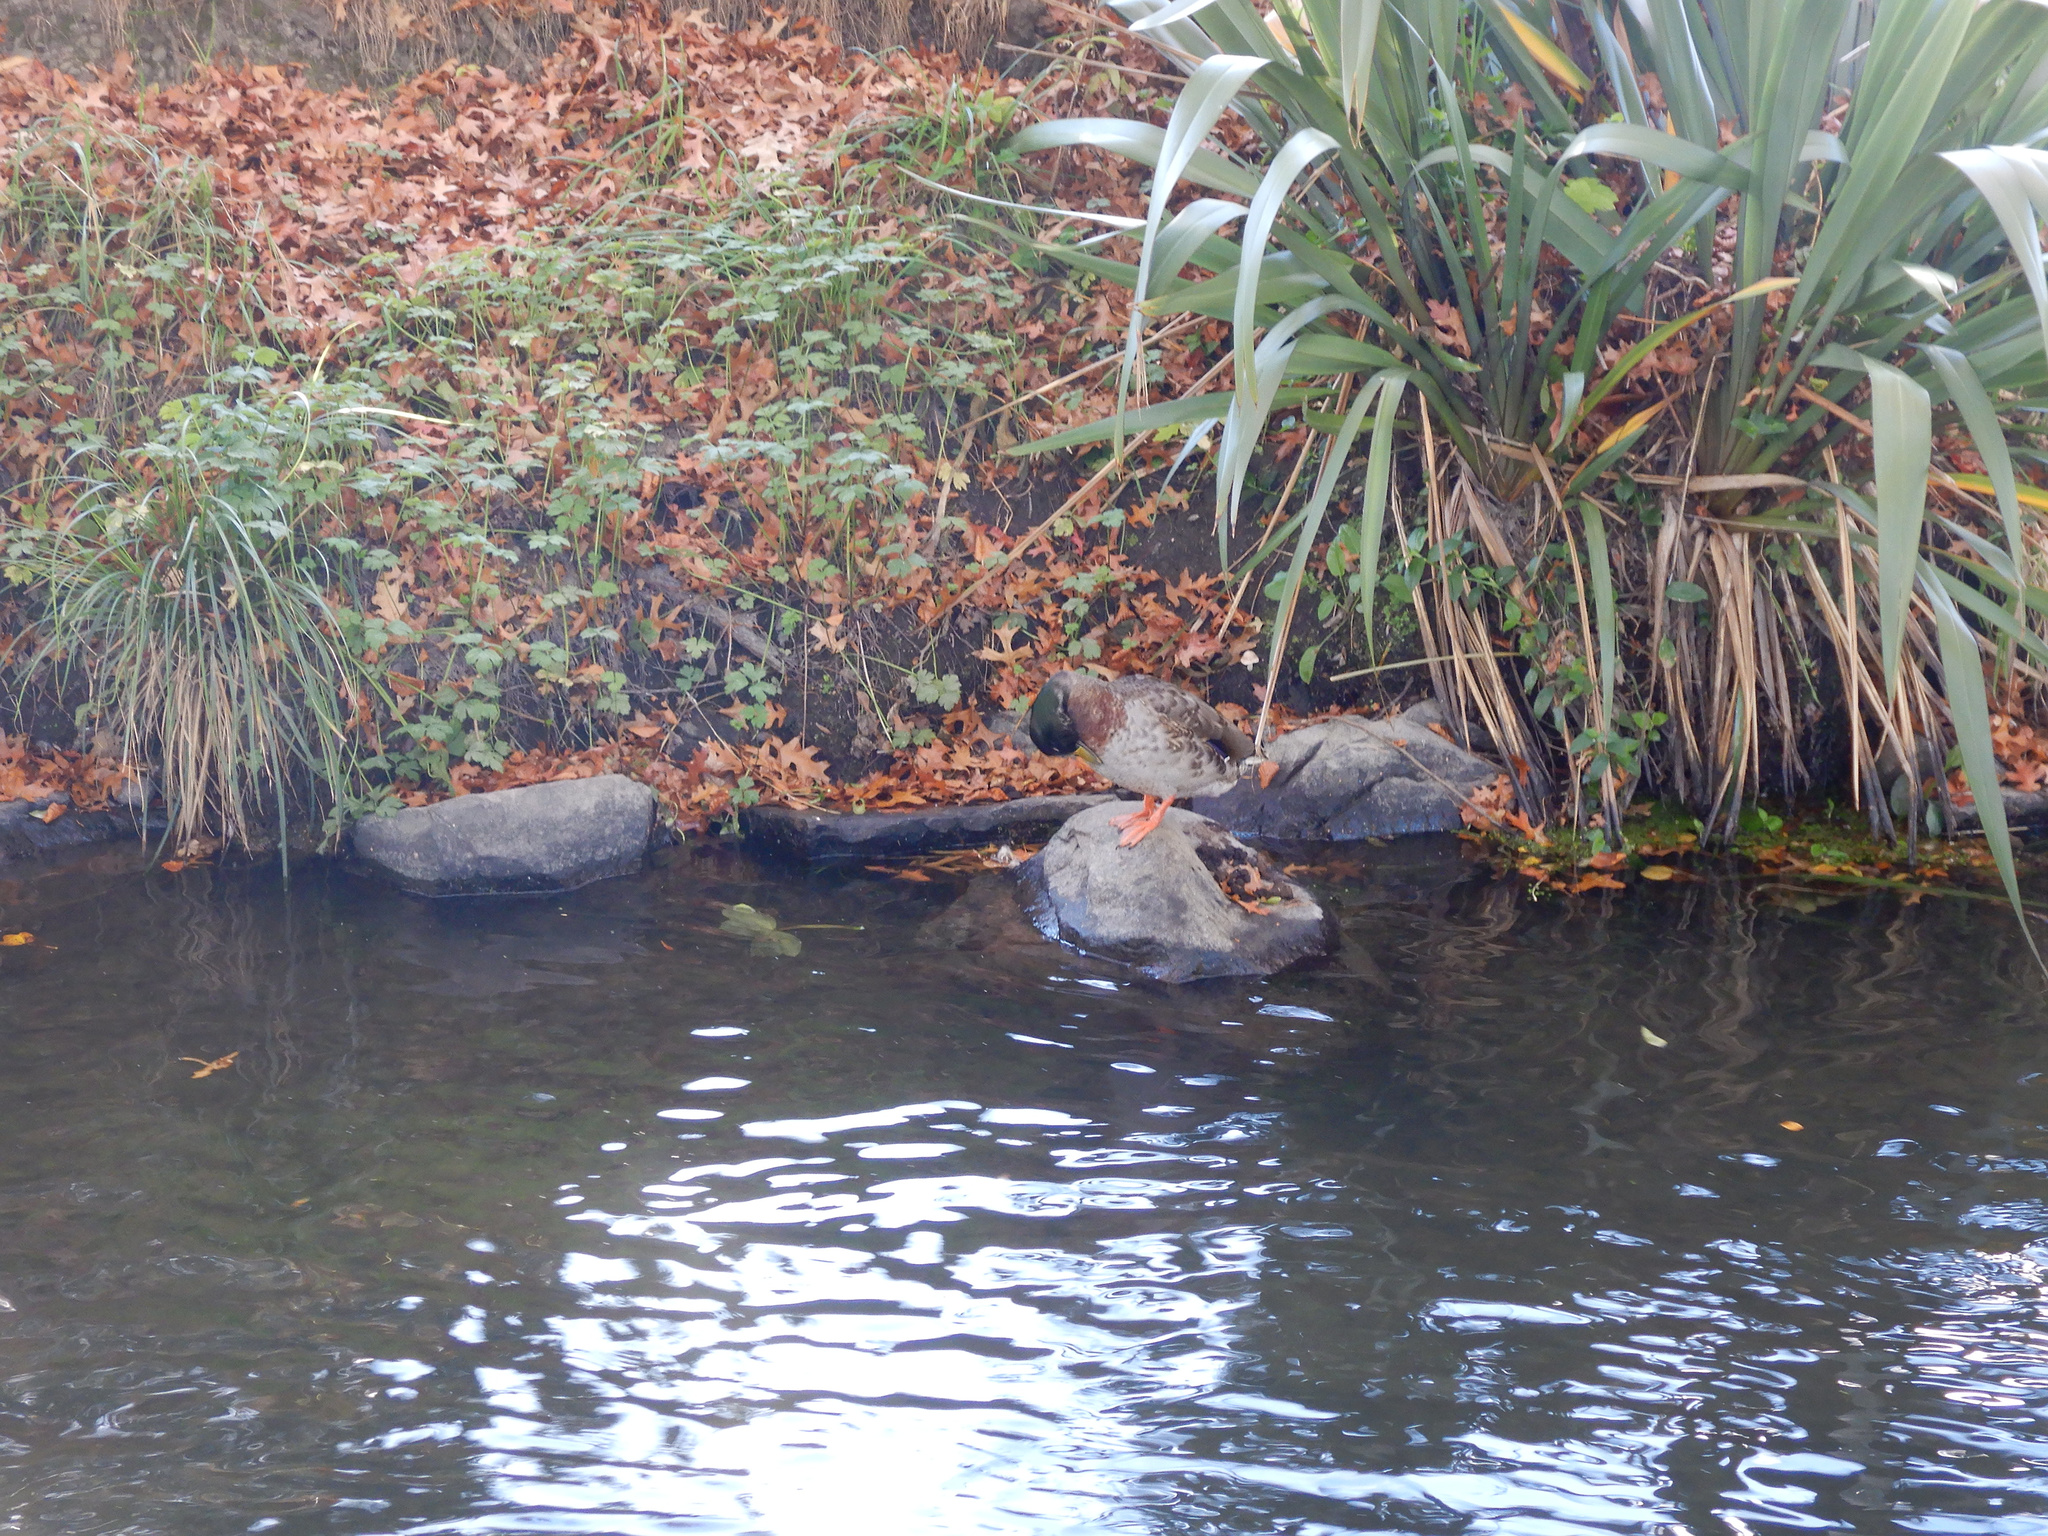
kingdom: Animalia
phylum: Chordata
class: Aves
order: Anseriformes
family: Anatidae
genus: Anas
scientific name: Anas platyrhynchos
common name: Mallard
